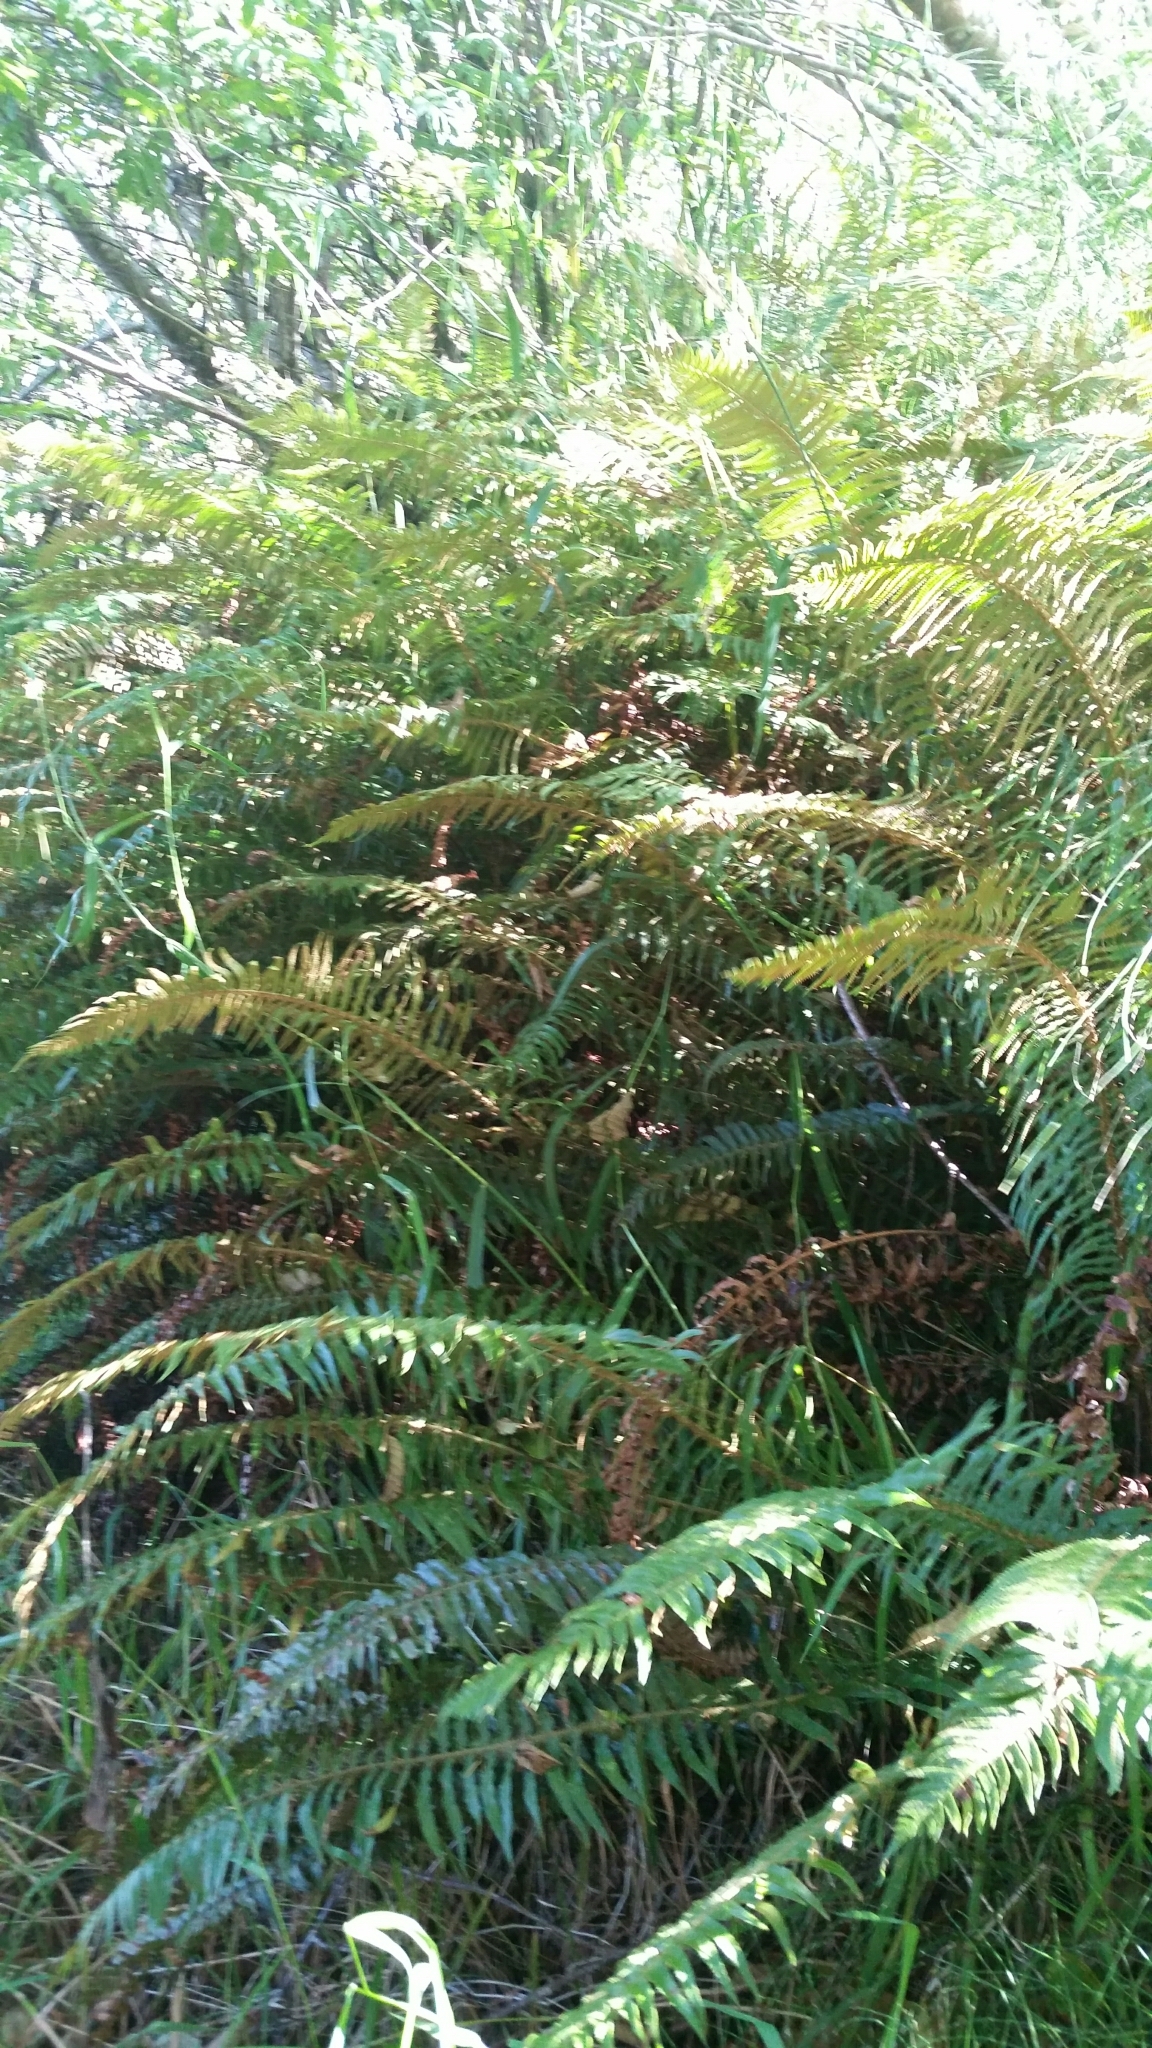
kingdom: Plantae
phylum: Tracheophyta
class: Polypodiopsida
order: Polypodiales
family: Dryopteridaceae
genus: Polystichum
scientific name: Polystichum munitum
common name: Western sword-fern
